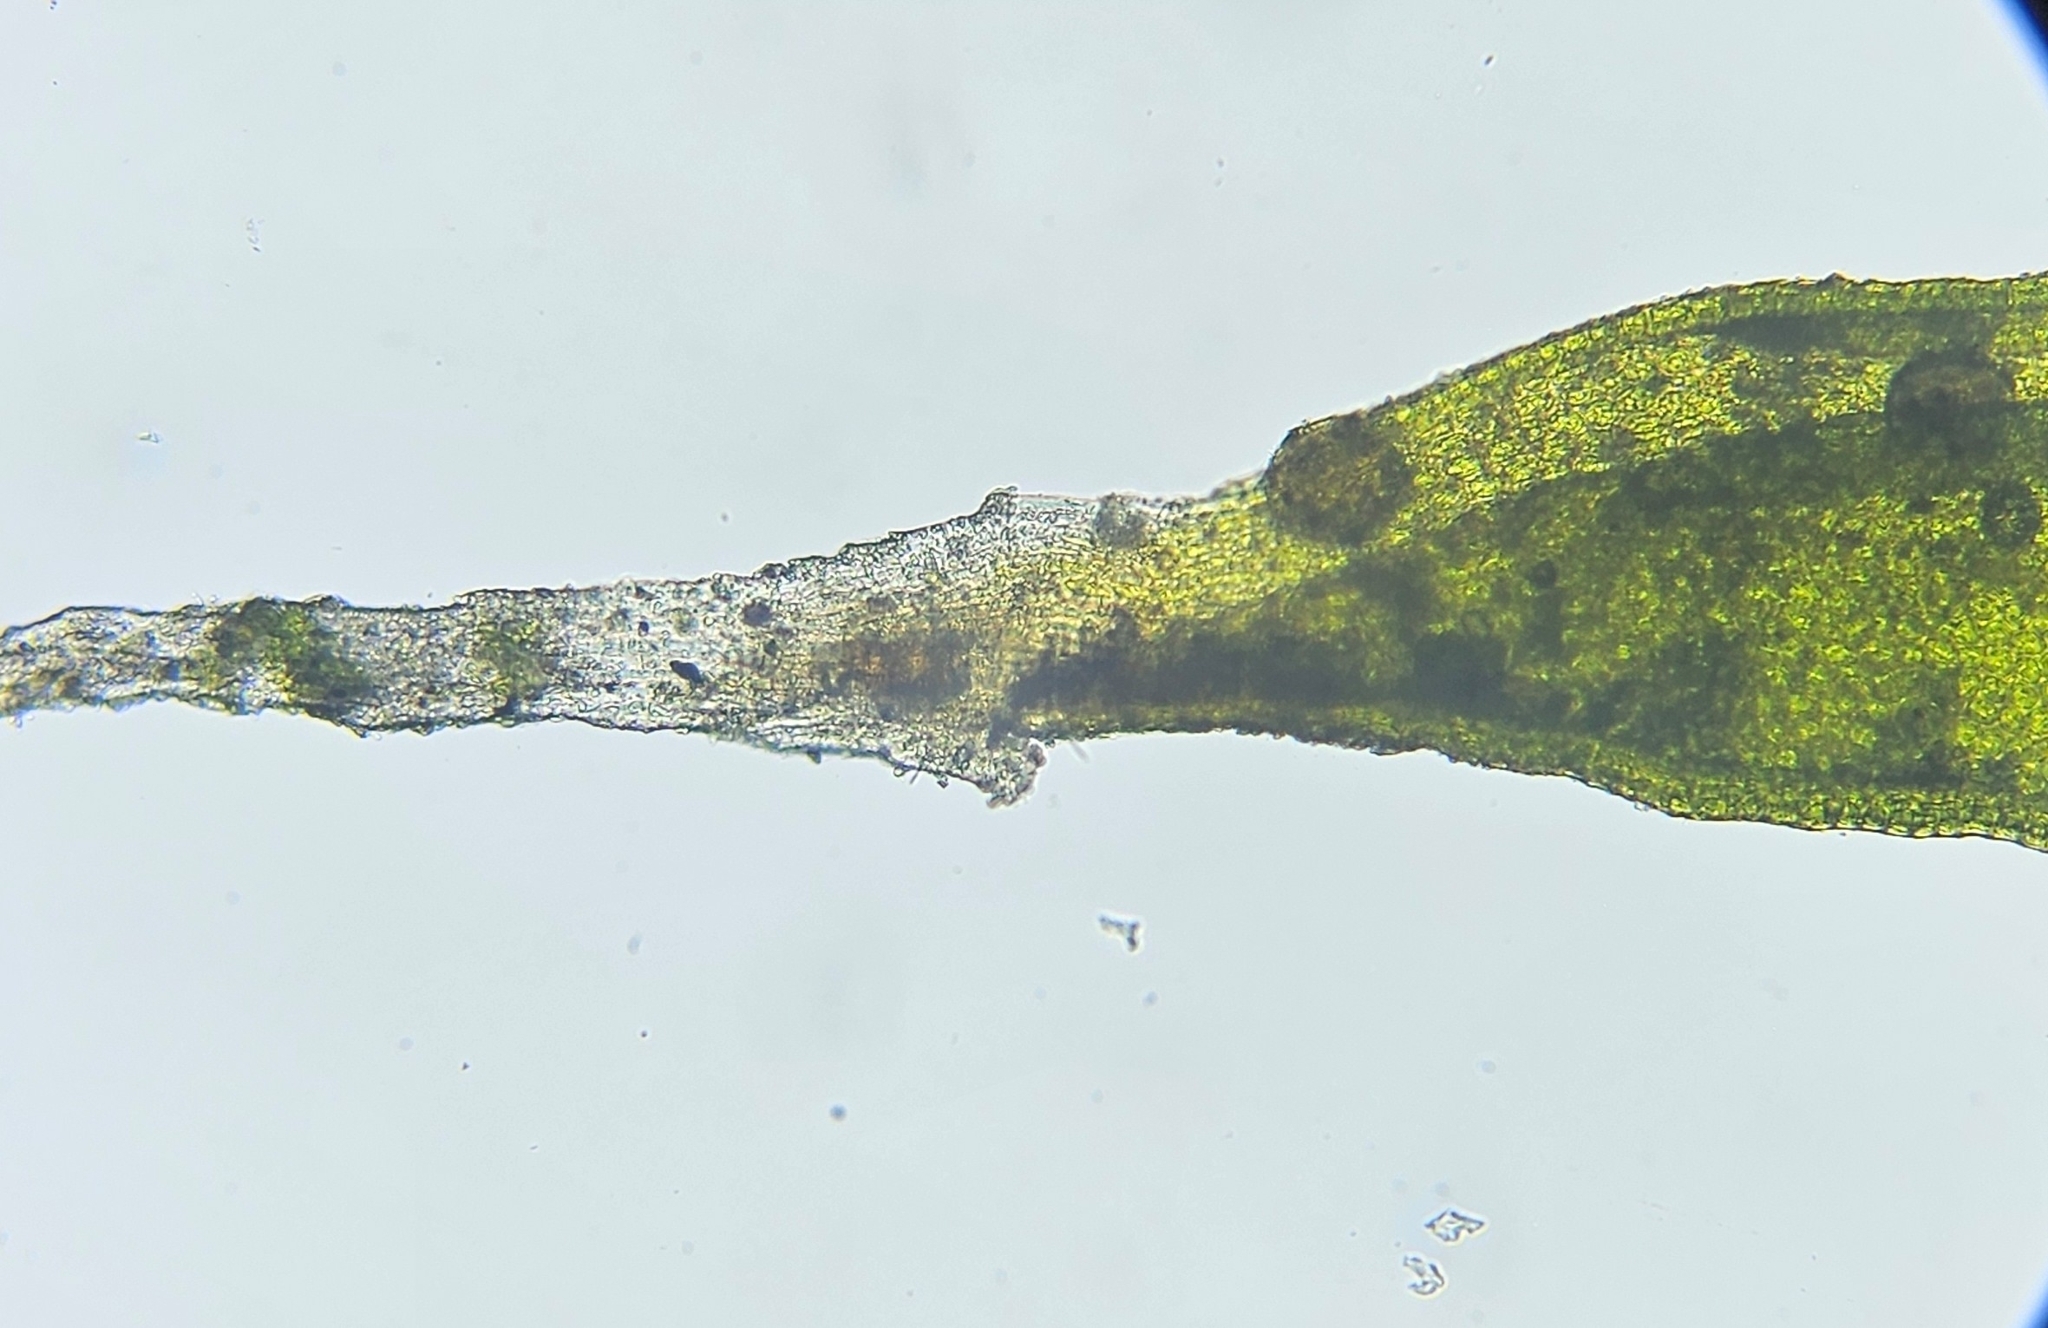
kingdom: Plantae
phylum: Bryophyta
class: Bryopsida
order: Orthotrichales
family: Orthotrichaceae
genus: Orthotrichum
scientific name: Orthotrichum diaphanum
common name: White-tipped bristle-moss
